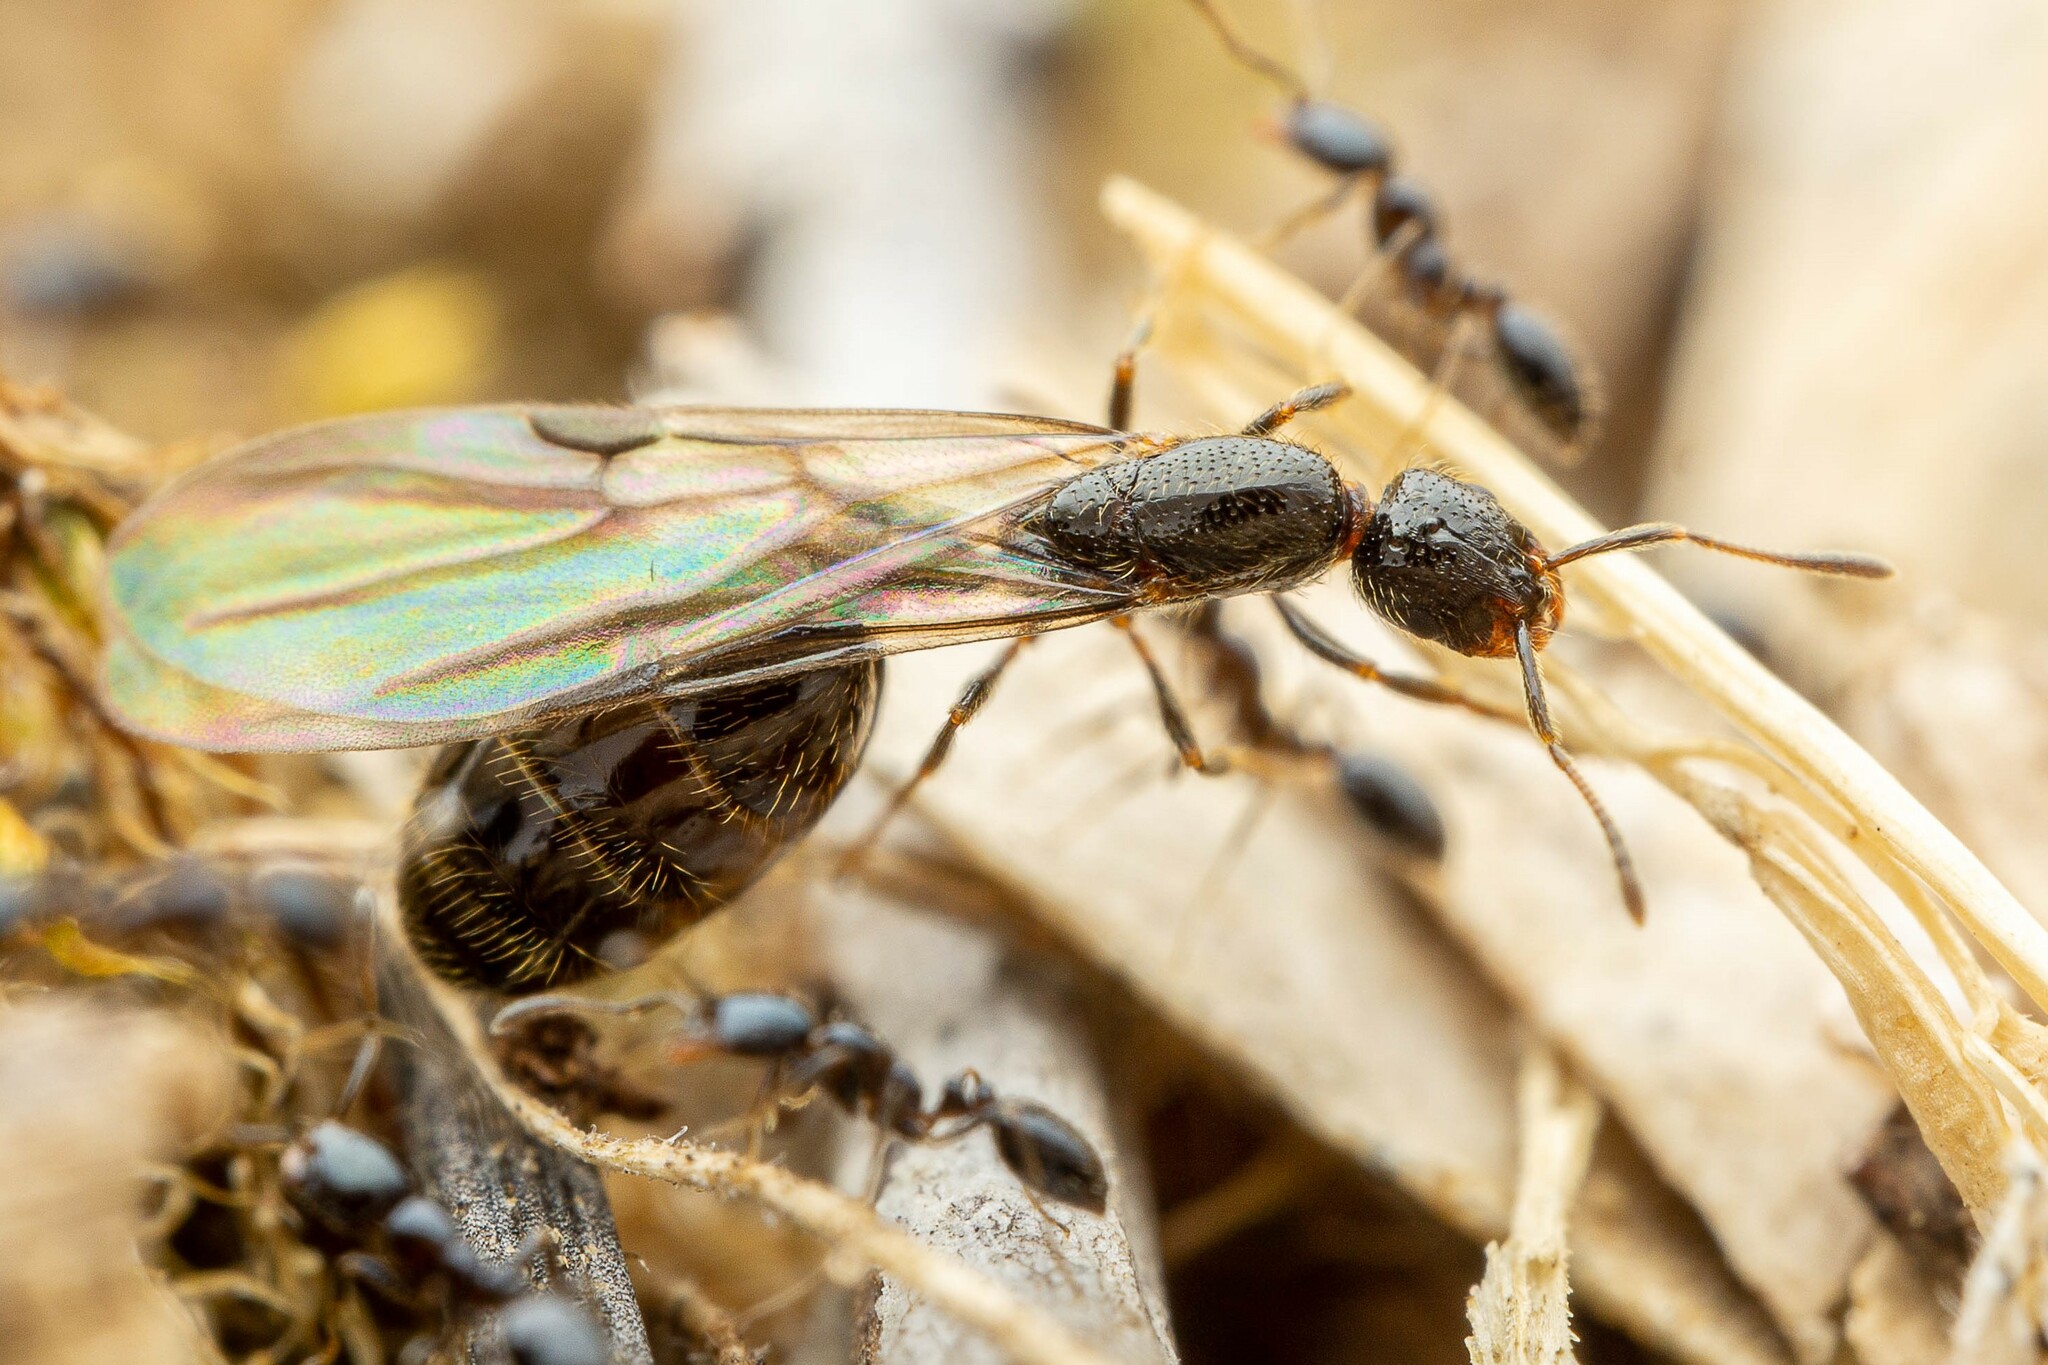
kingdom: Animalia
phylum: Arthropoda
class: Insecta
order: Hymenoptera
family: Formicidae
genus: Monomorium
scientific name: Monomorium minimum
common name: Little black ant
